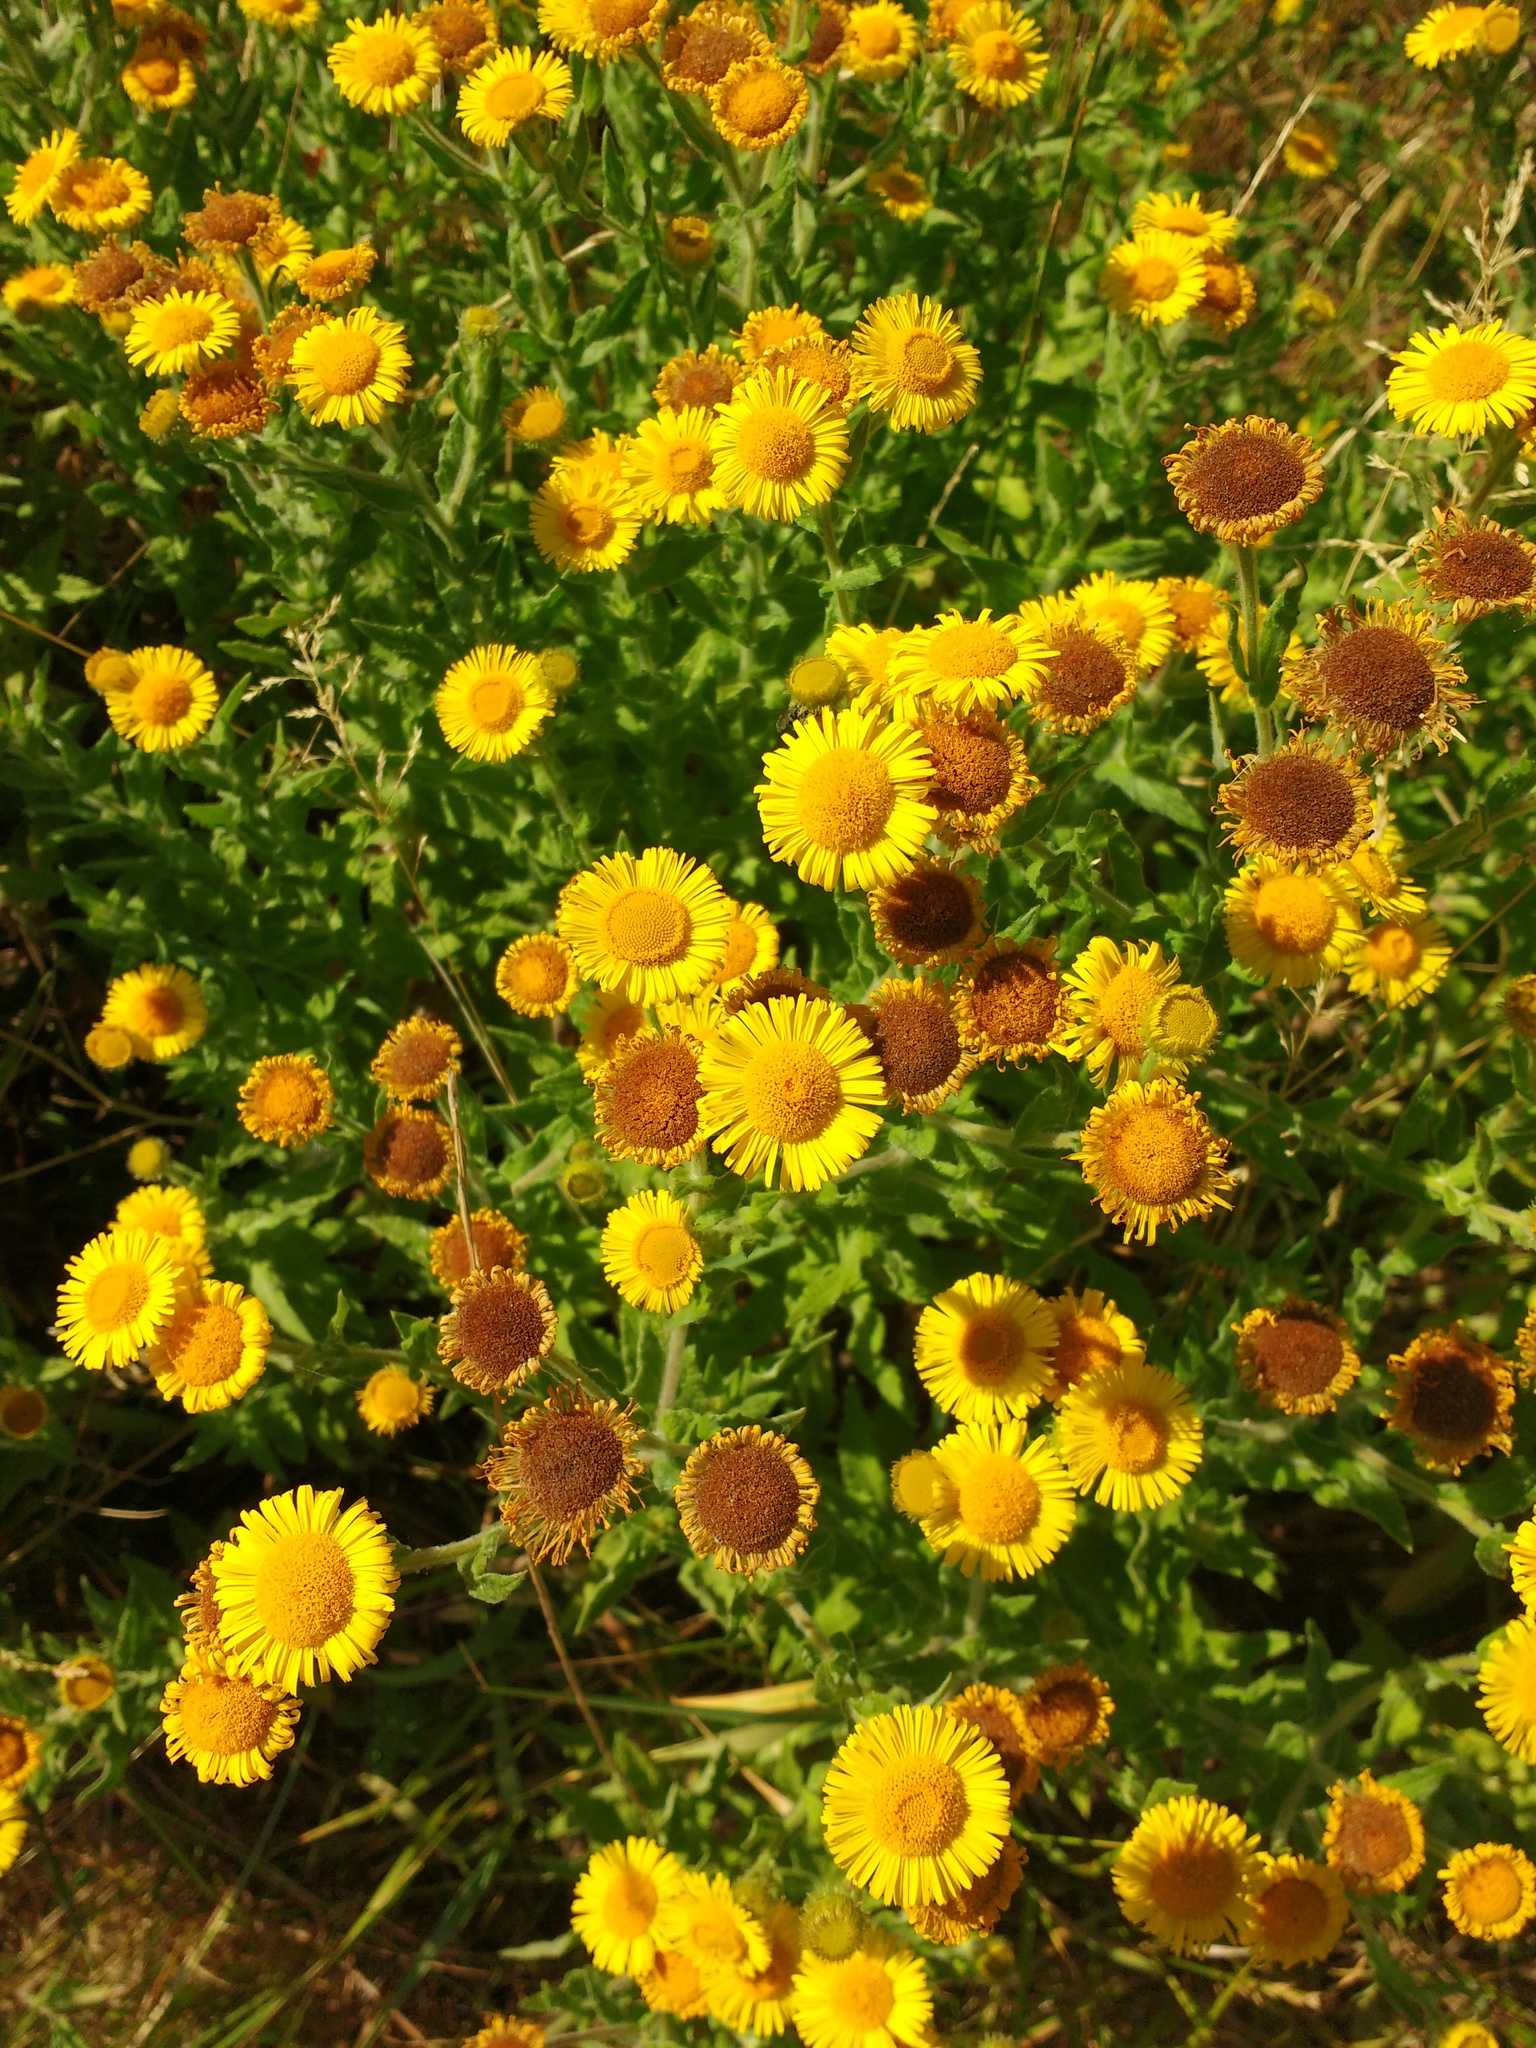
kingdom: Plantae
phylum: Tracheophyta
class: Magnoliopsida
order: Asterales
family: Asteraceae
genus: Pulicaria
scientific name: Pulicaria dysenterica
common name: Common fleabane
